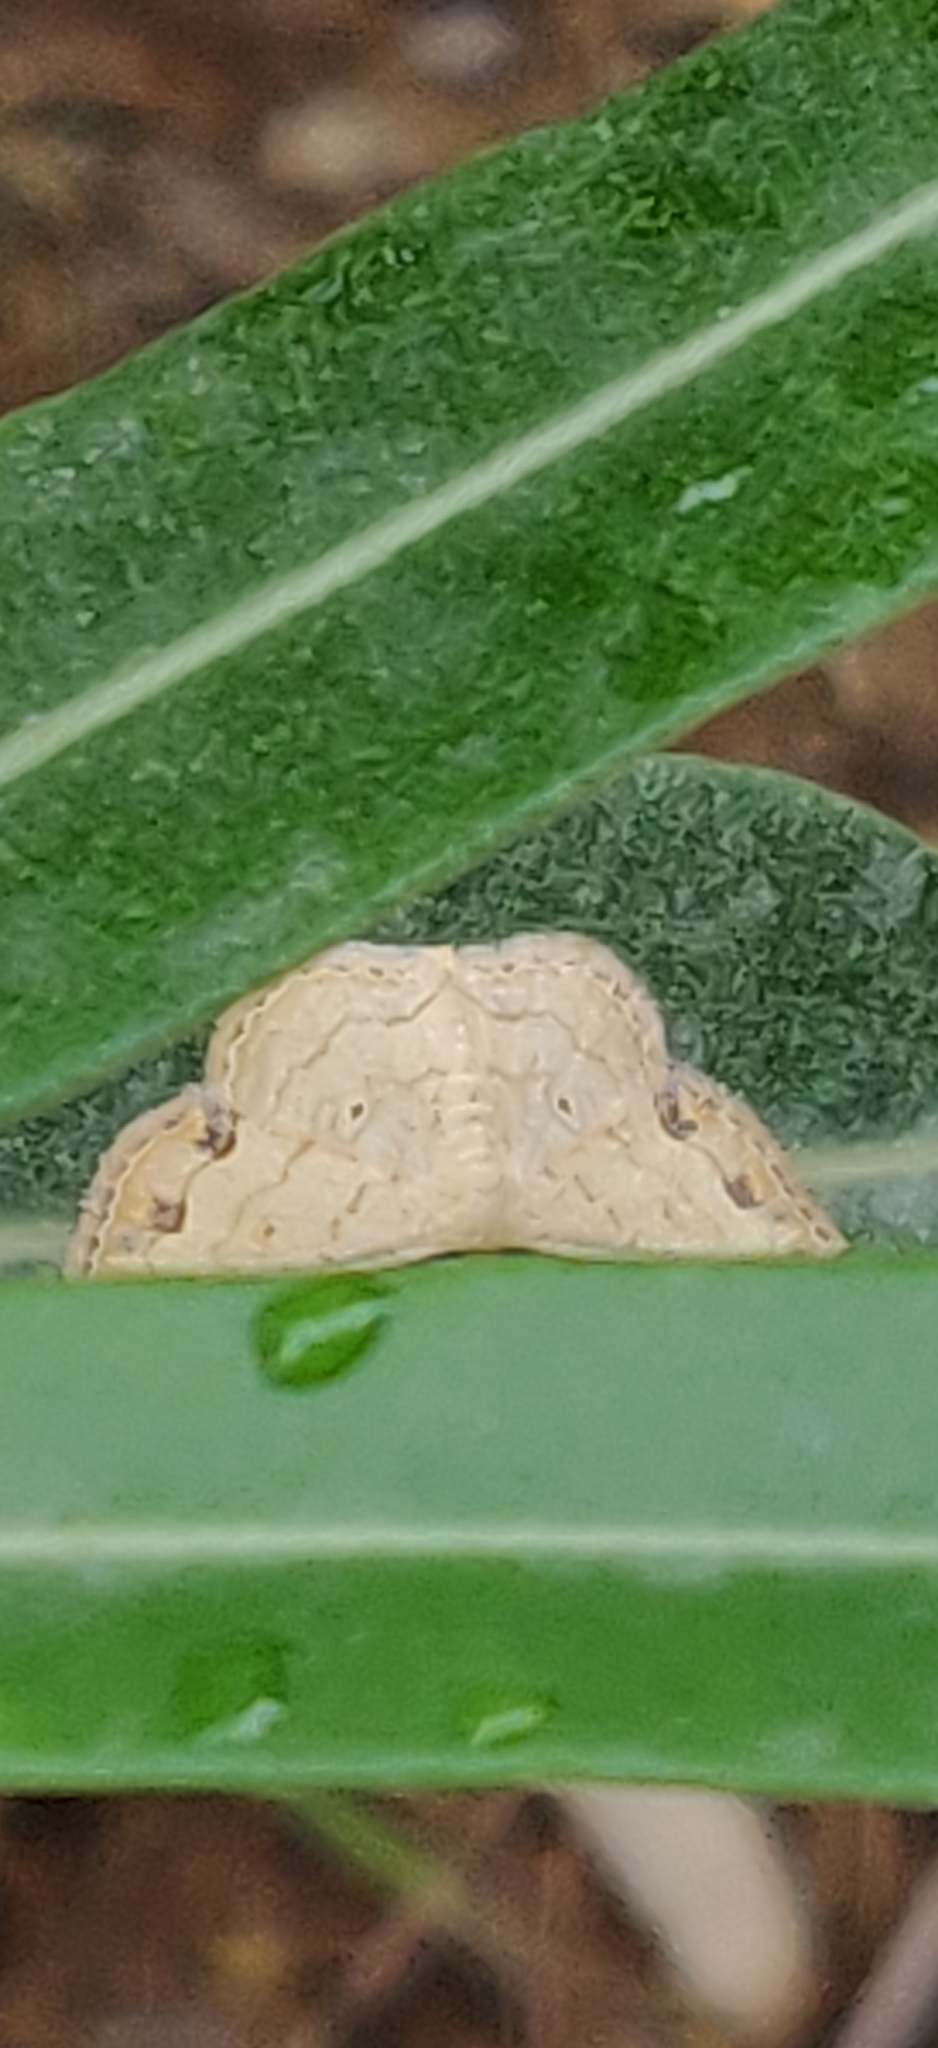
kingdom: Animalia
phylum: Arthropoda
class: Insecta
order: Lepidoptera
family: Geometridae
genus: Scopula
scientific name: Scopula addictaria
